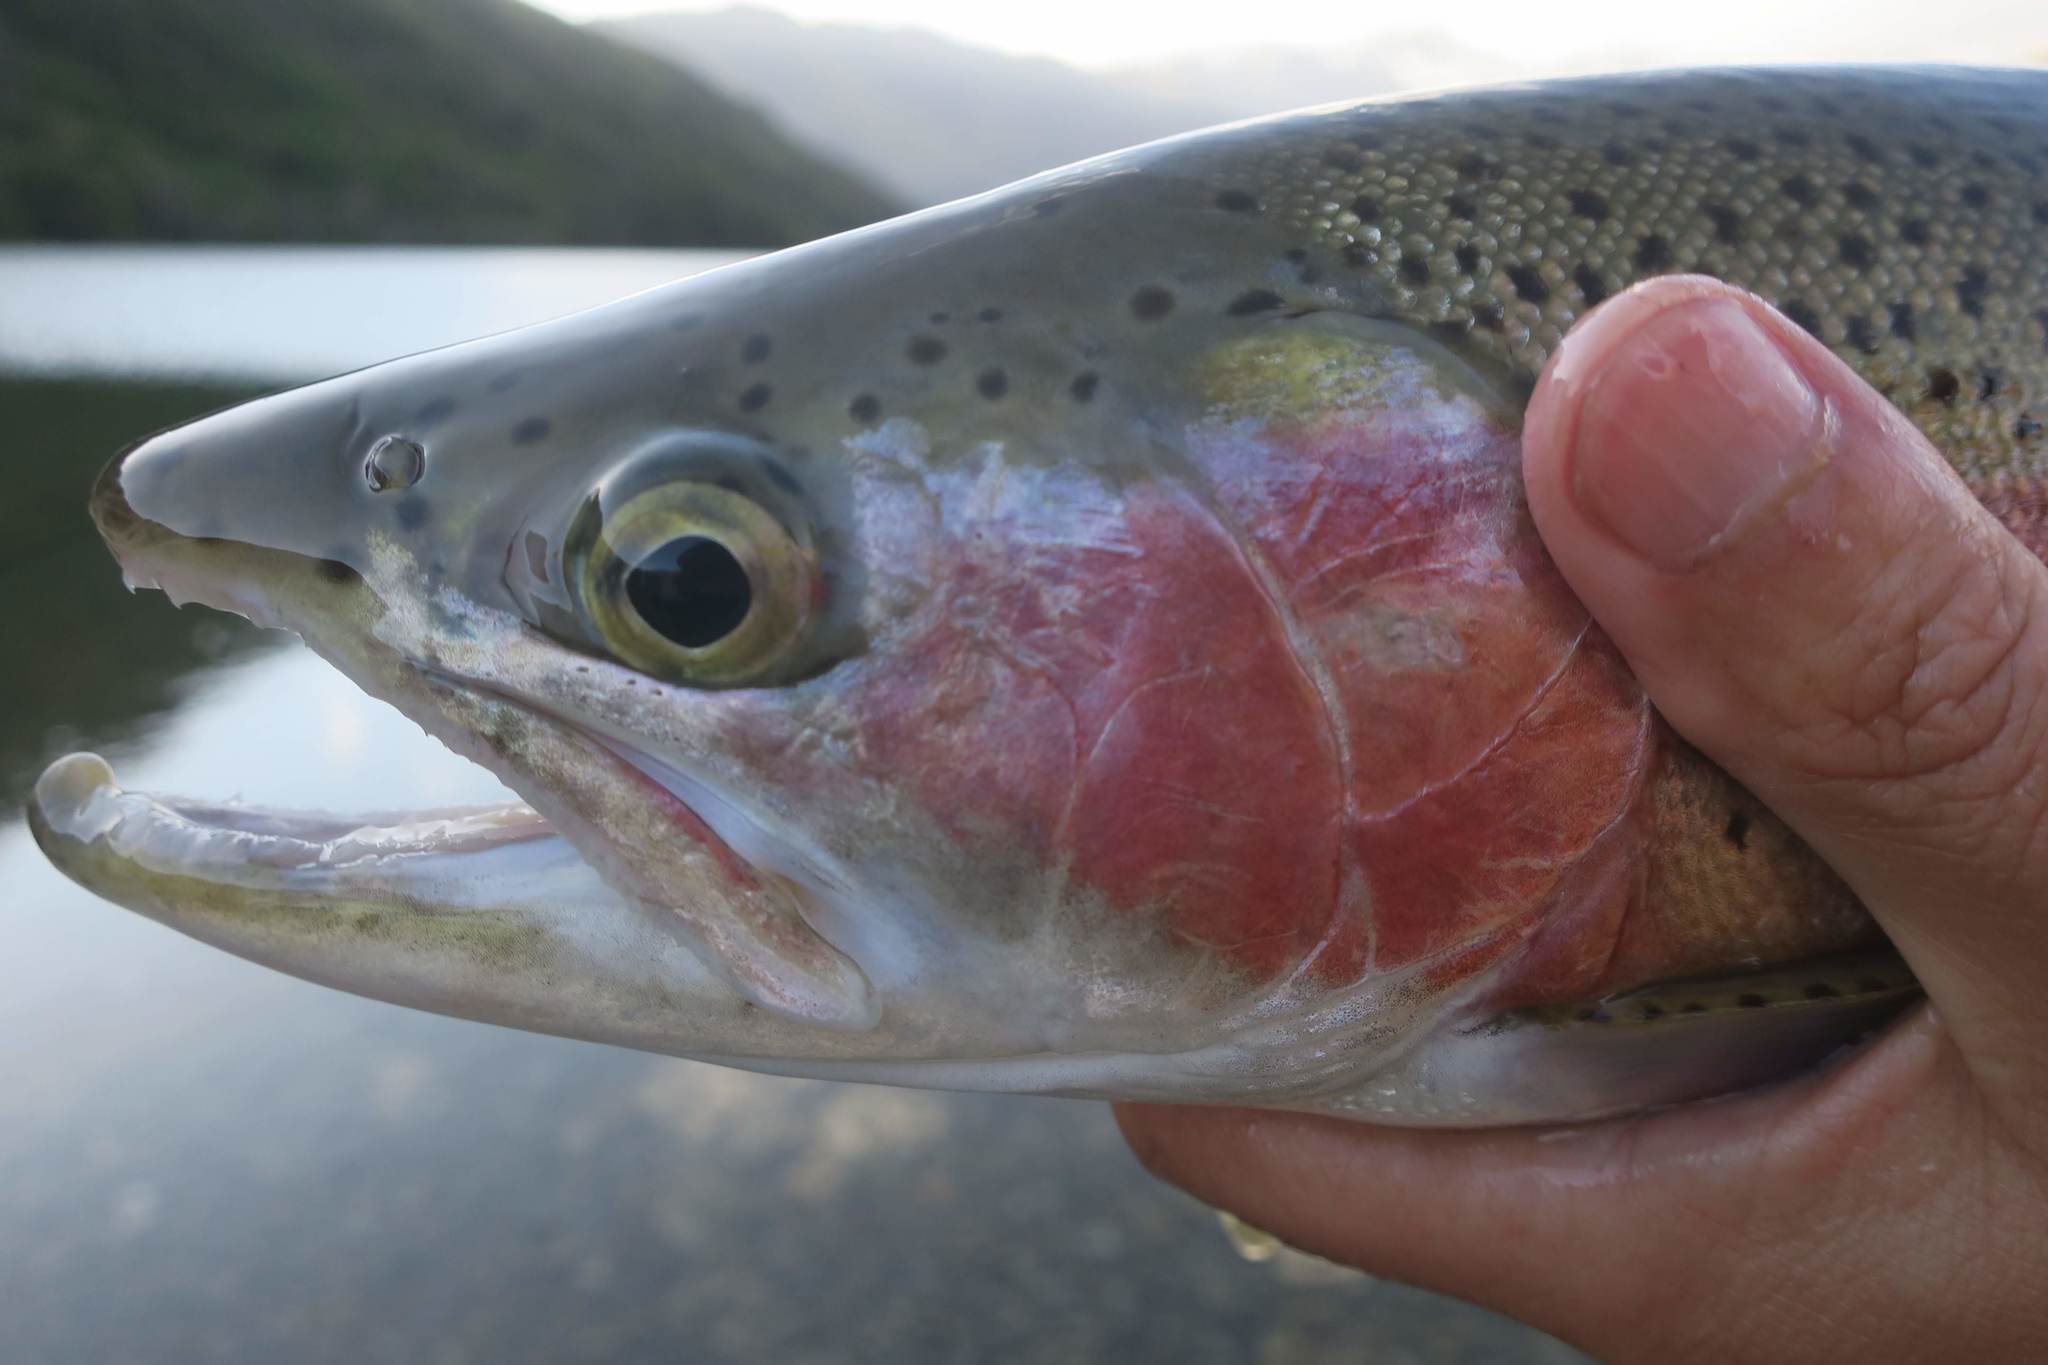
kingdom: Animalia
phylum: Chordata
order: Salmoniformes
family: Salmonidae
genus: Oncorhynchus
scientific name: Oncorhynchus mykiss
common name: Rainbow trout
